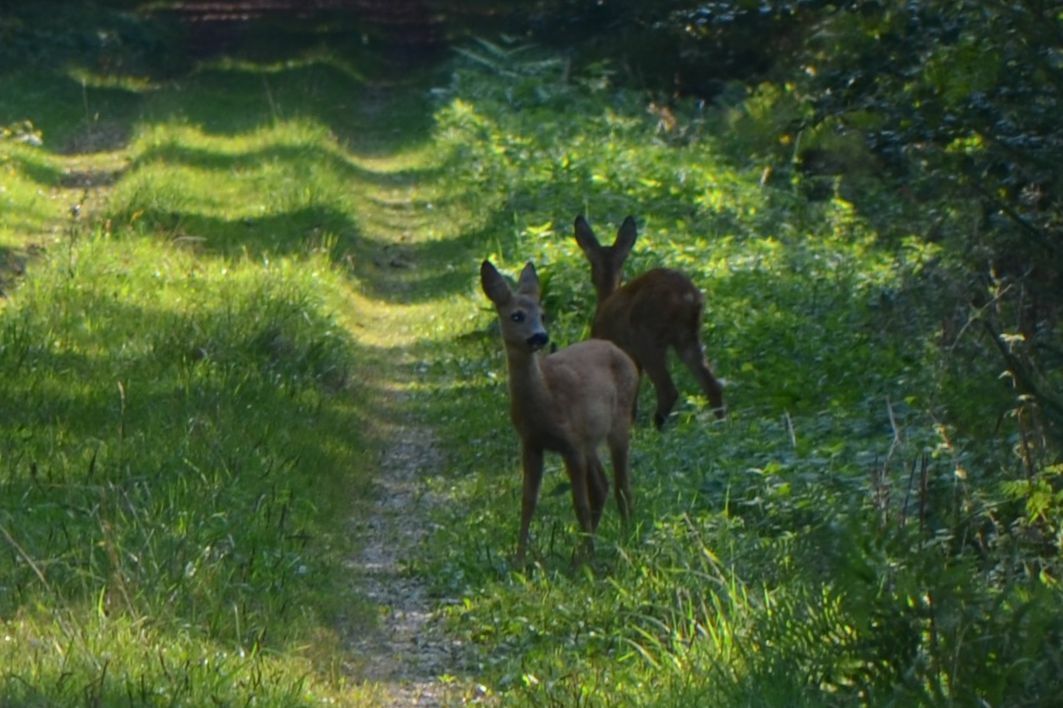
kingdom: Animalia
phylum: Chordata
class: Mammalia
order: Artiodactyla
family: Cervidae
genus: Capreolus
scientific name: Capreolus capreolus
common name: Western roe deer
